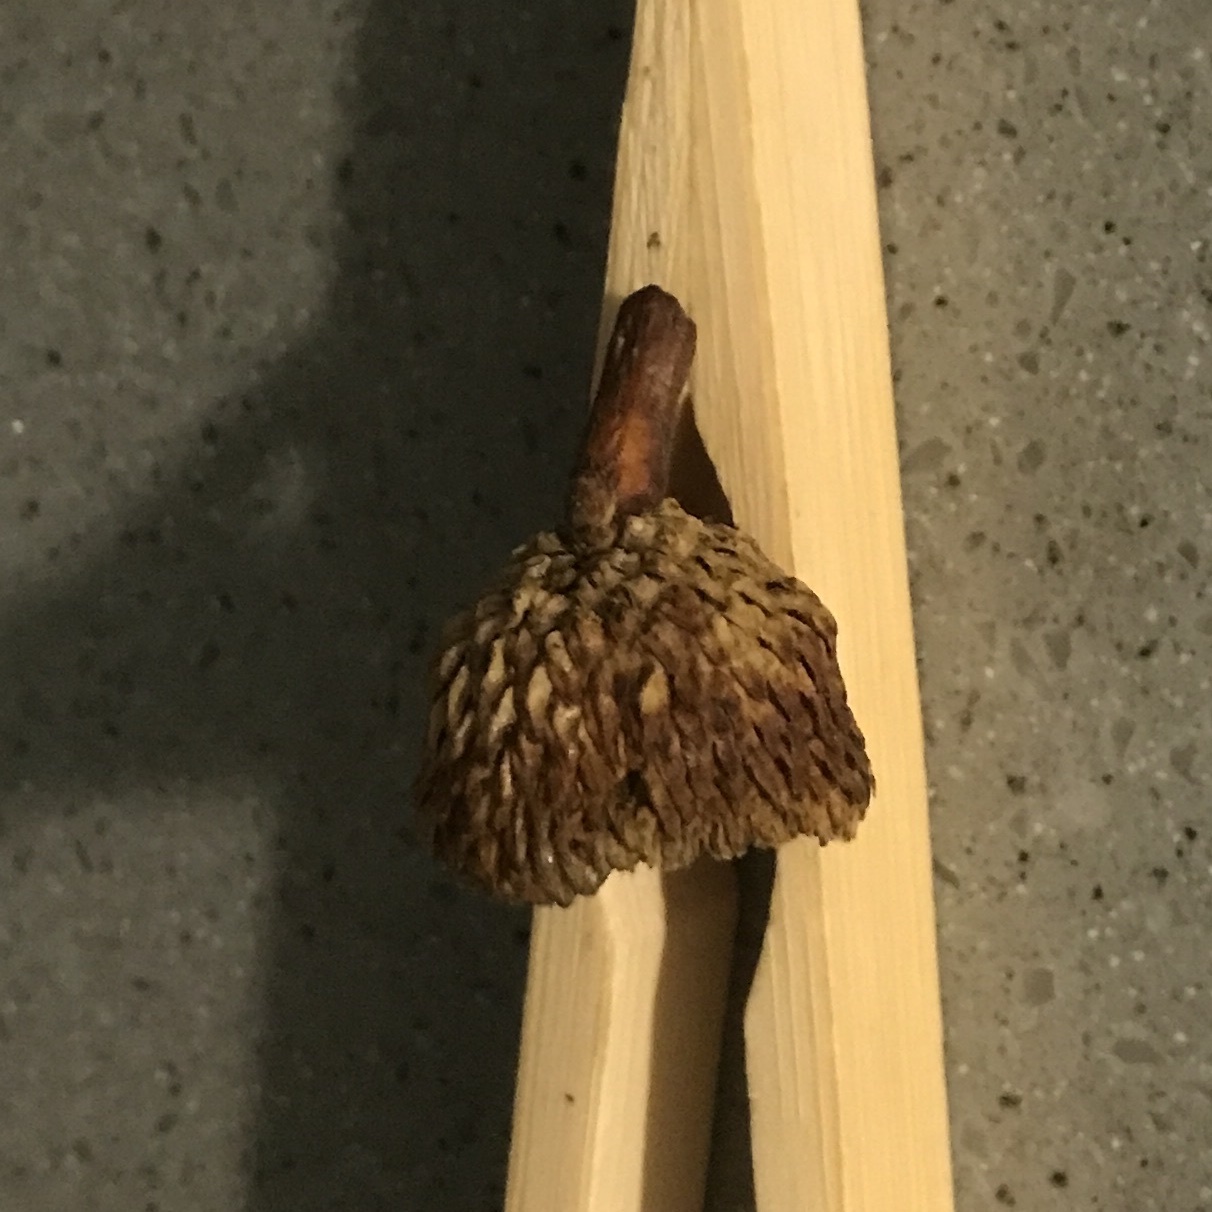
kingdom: Plantae
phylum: Tracheophyta
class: Magnoliopsida
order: Fagales
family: Fagaceae
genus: Quercus
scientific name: Quercus muehlenbergii
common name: Chinkapin oak
